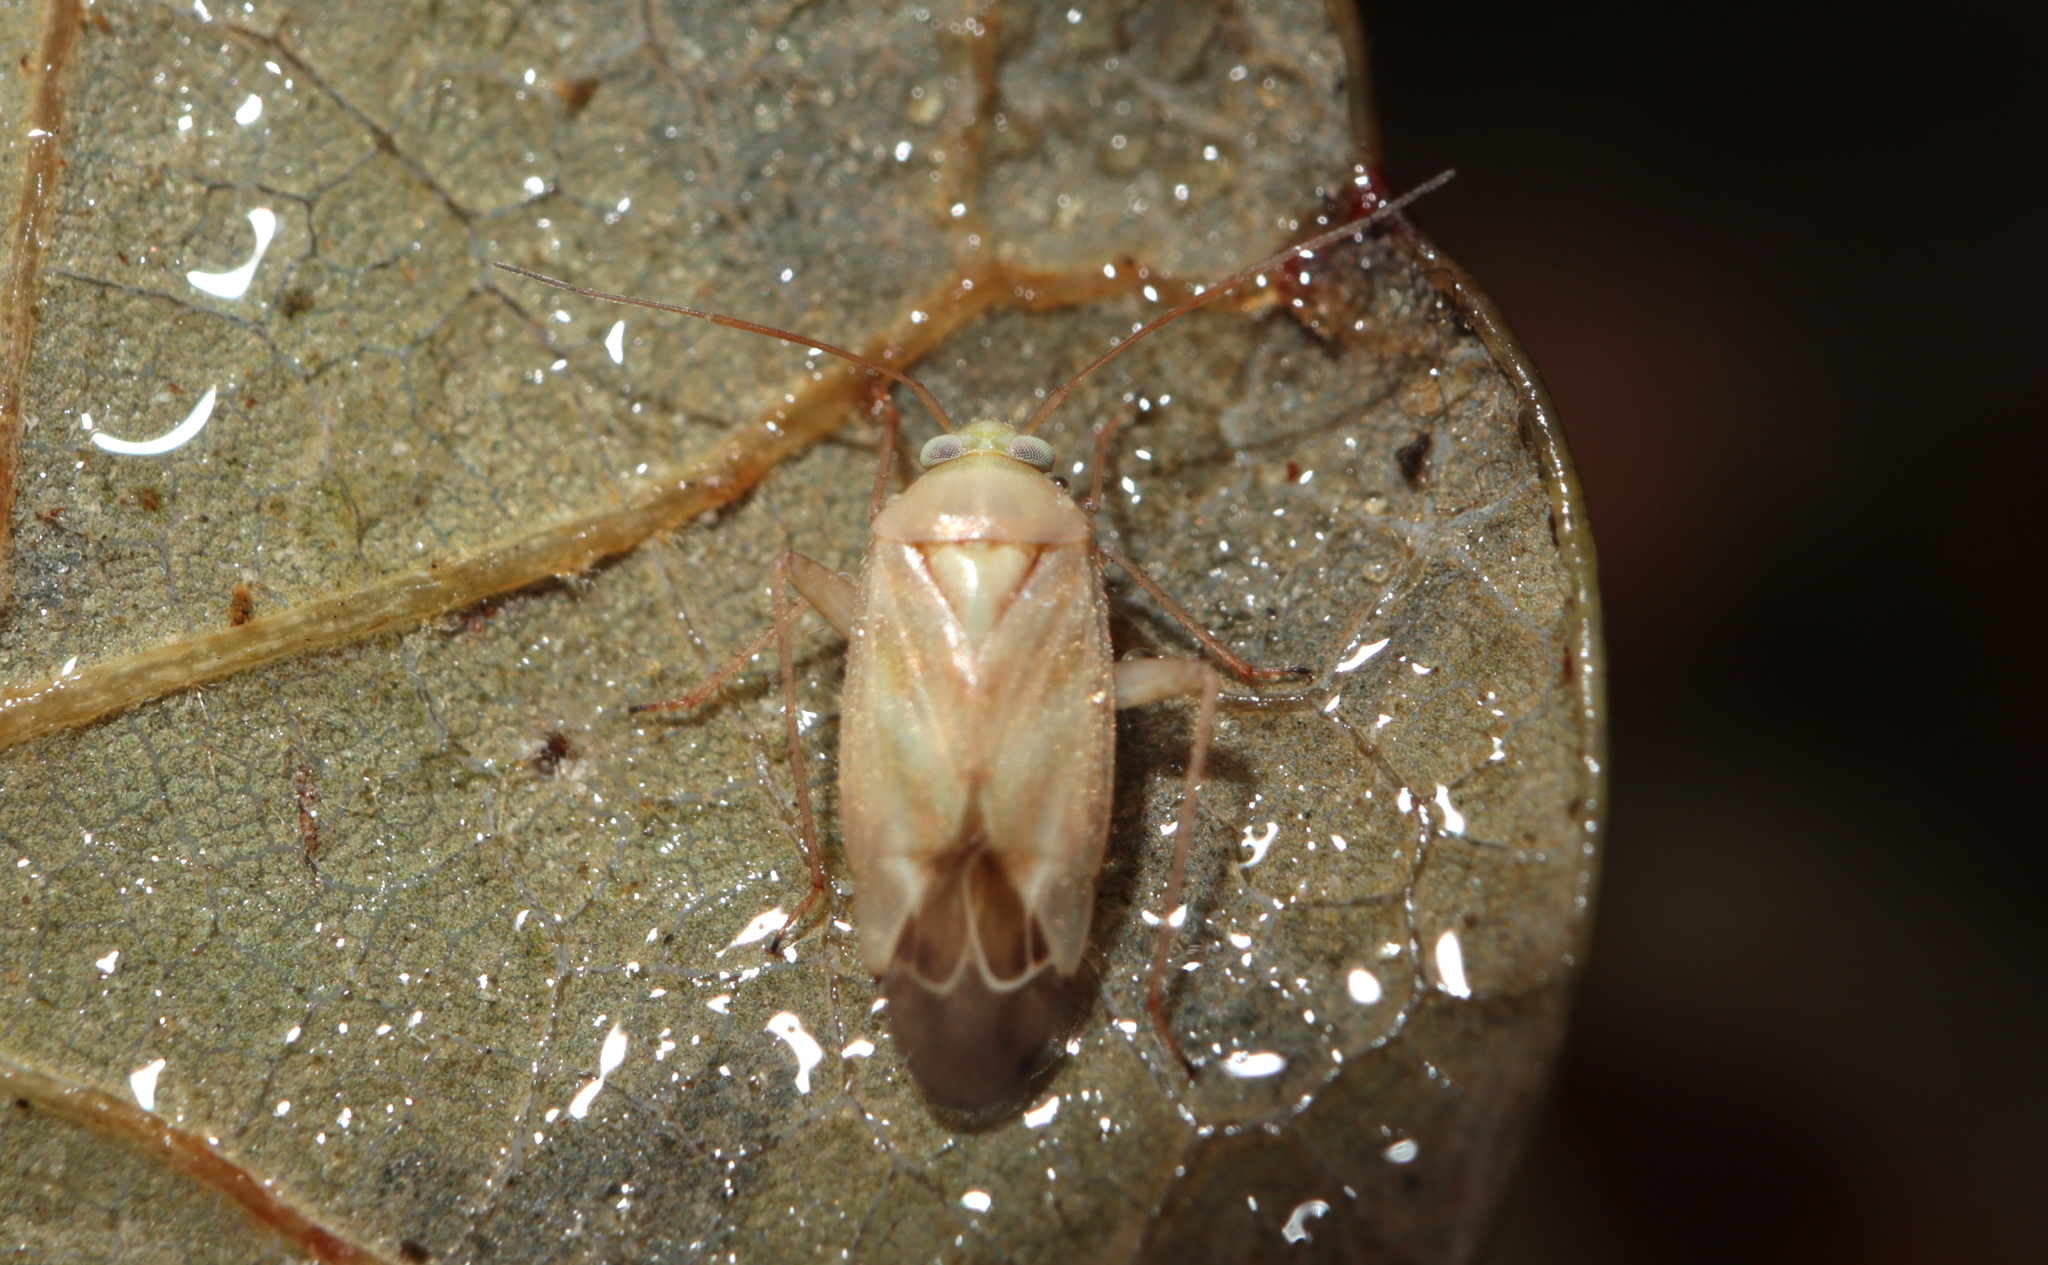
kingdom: Animalia
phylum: Arthropoda
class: Insecta
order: Hemiptera
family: Miridae
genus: Taylorilygus
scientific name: Taylorilygus apicalis
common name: Plant bug
